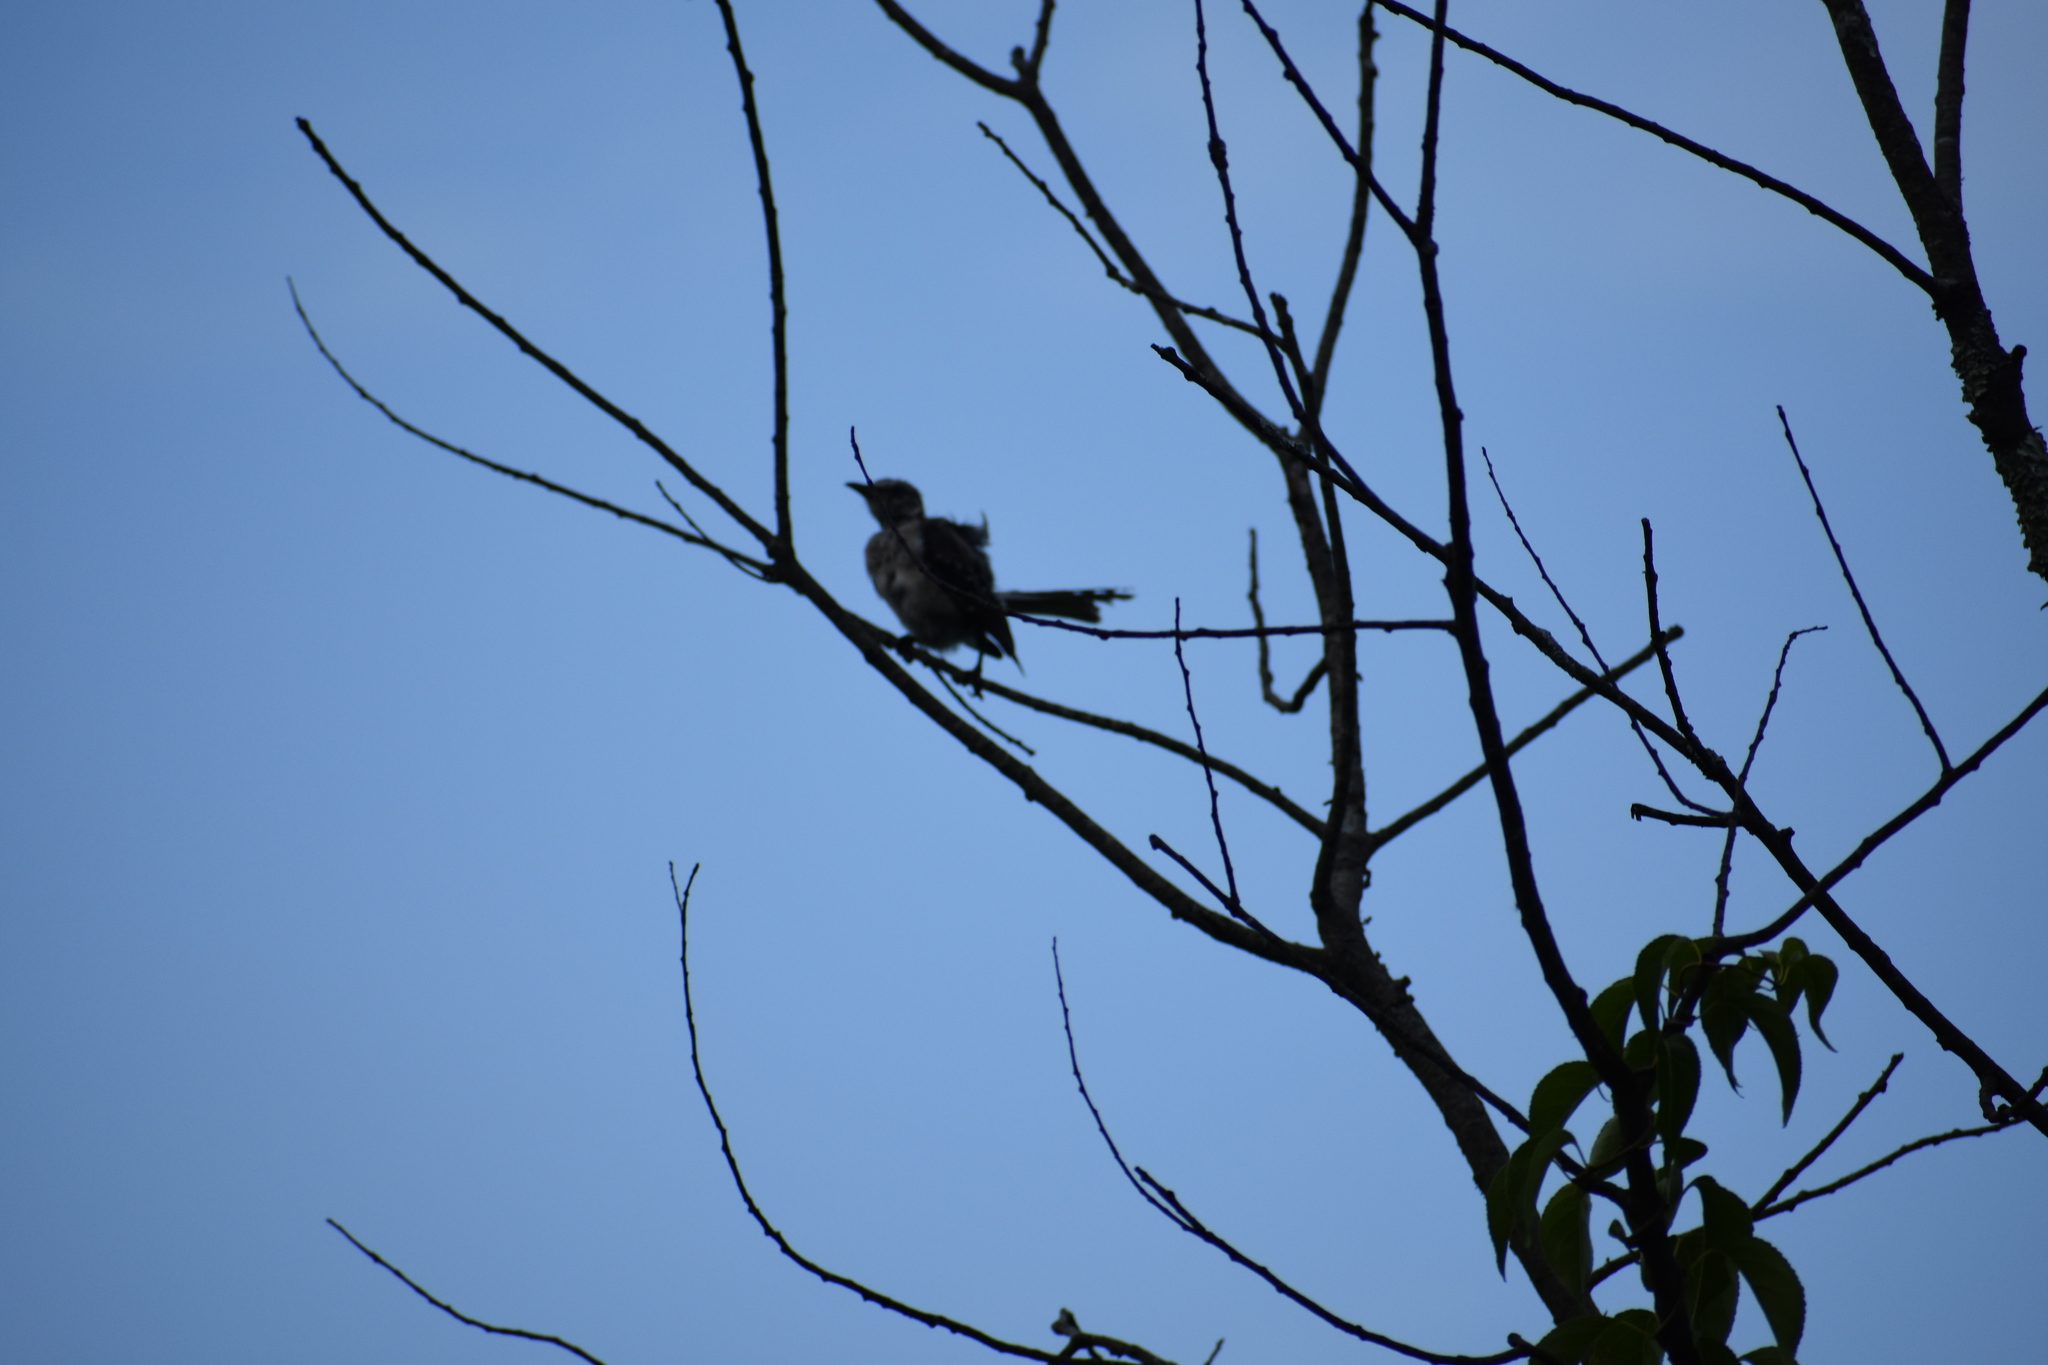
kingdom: Animalia
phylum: Chordata
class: Aves
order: Passeriformes
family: Mimidae
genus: Mimus
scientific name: Mimus polyglottos
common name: Northern mockingbird
